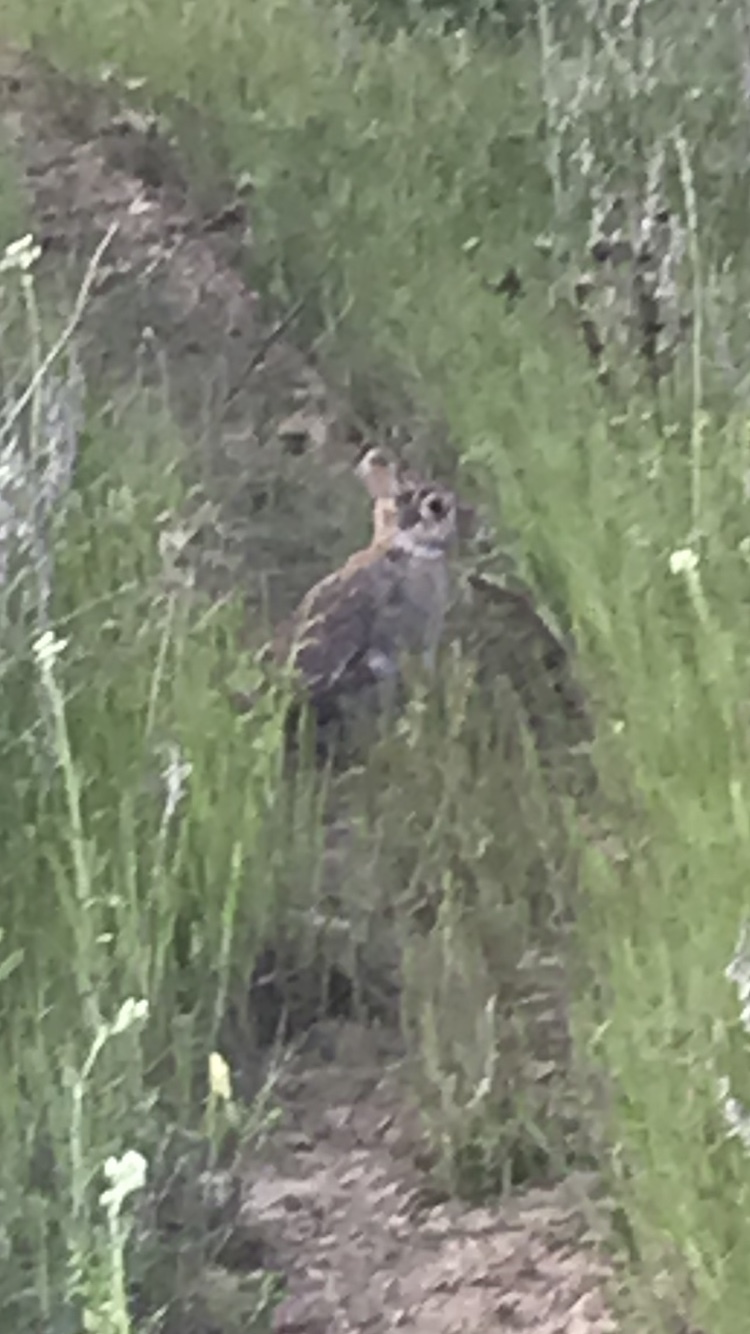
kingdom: Animalia
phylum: Chordata
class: Mammalia
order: Lagomorpha
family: Leporidae
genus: Sylvilagus
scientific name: Sylvilagus floridanus
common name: Eastern cottontail
